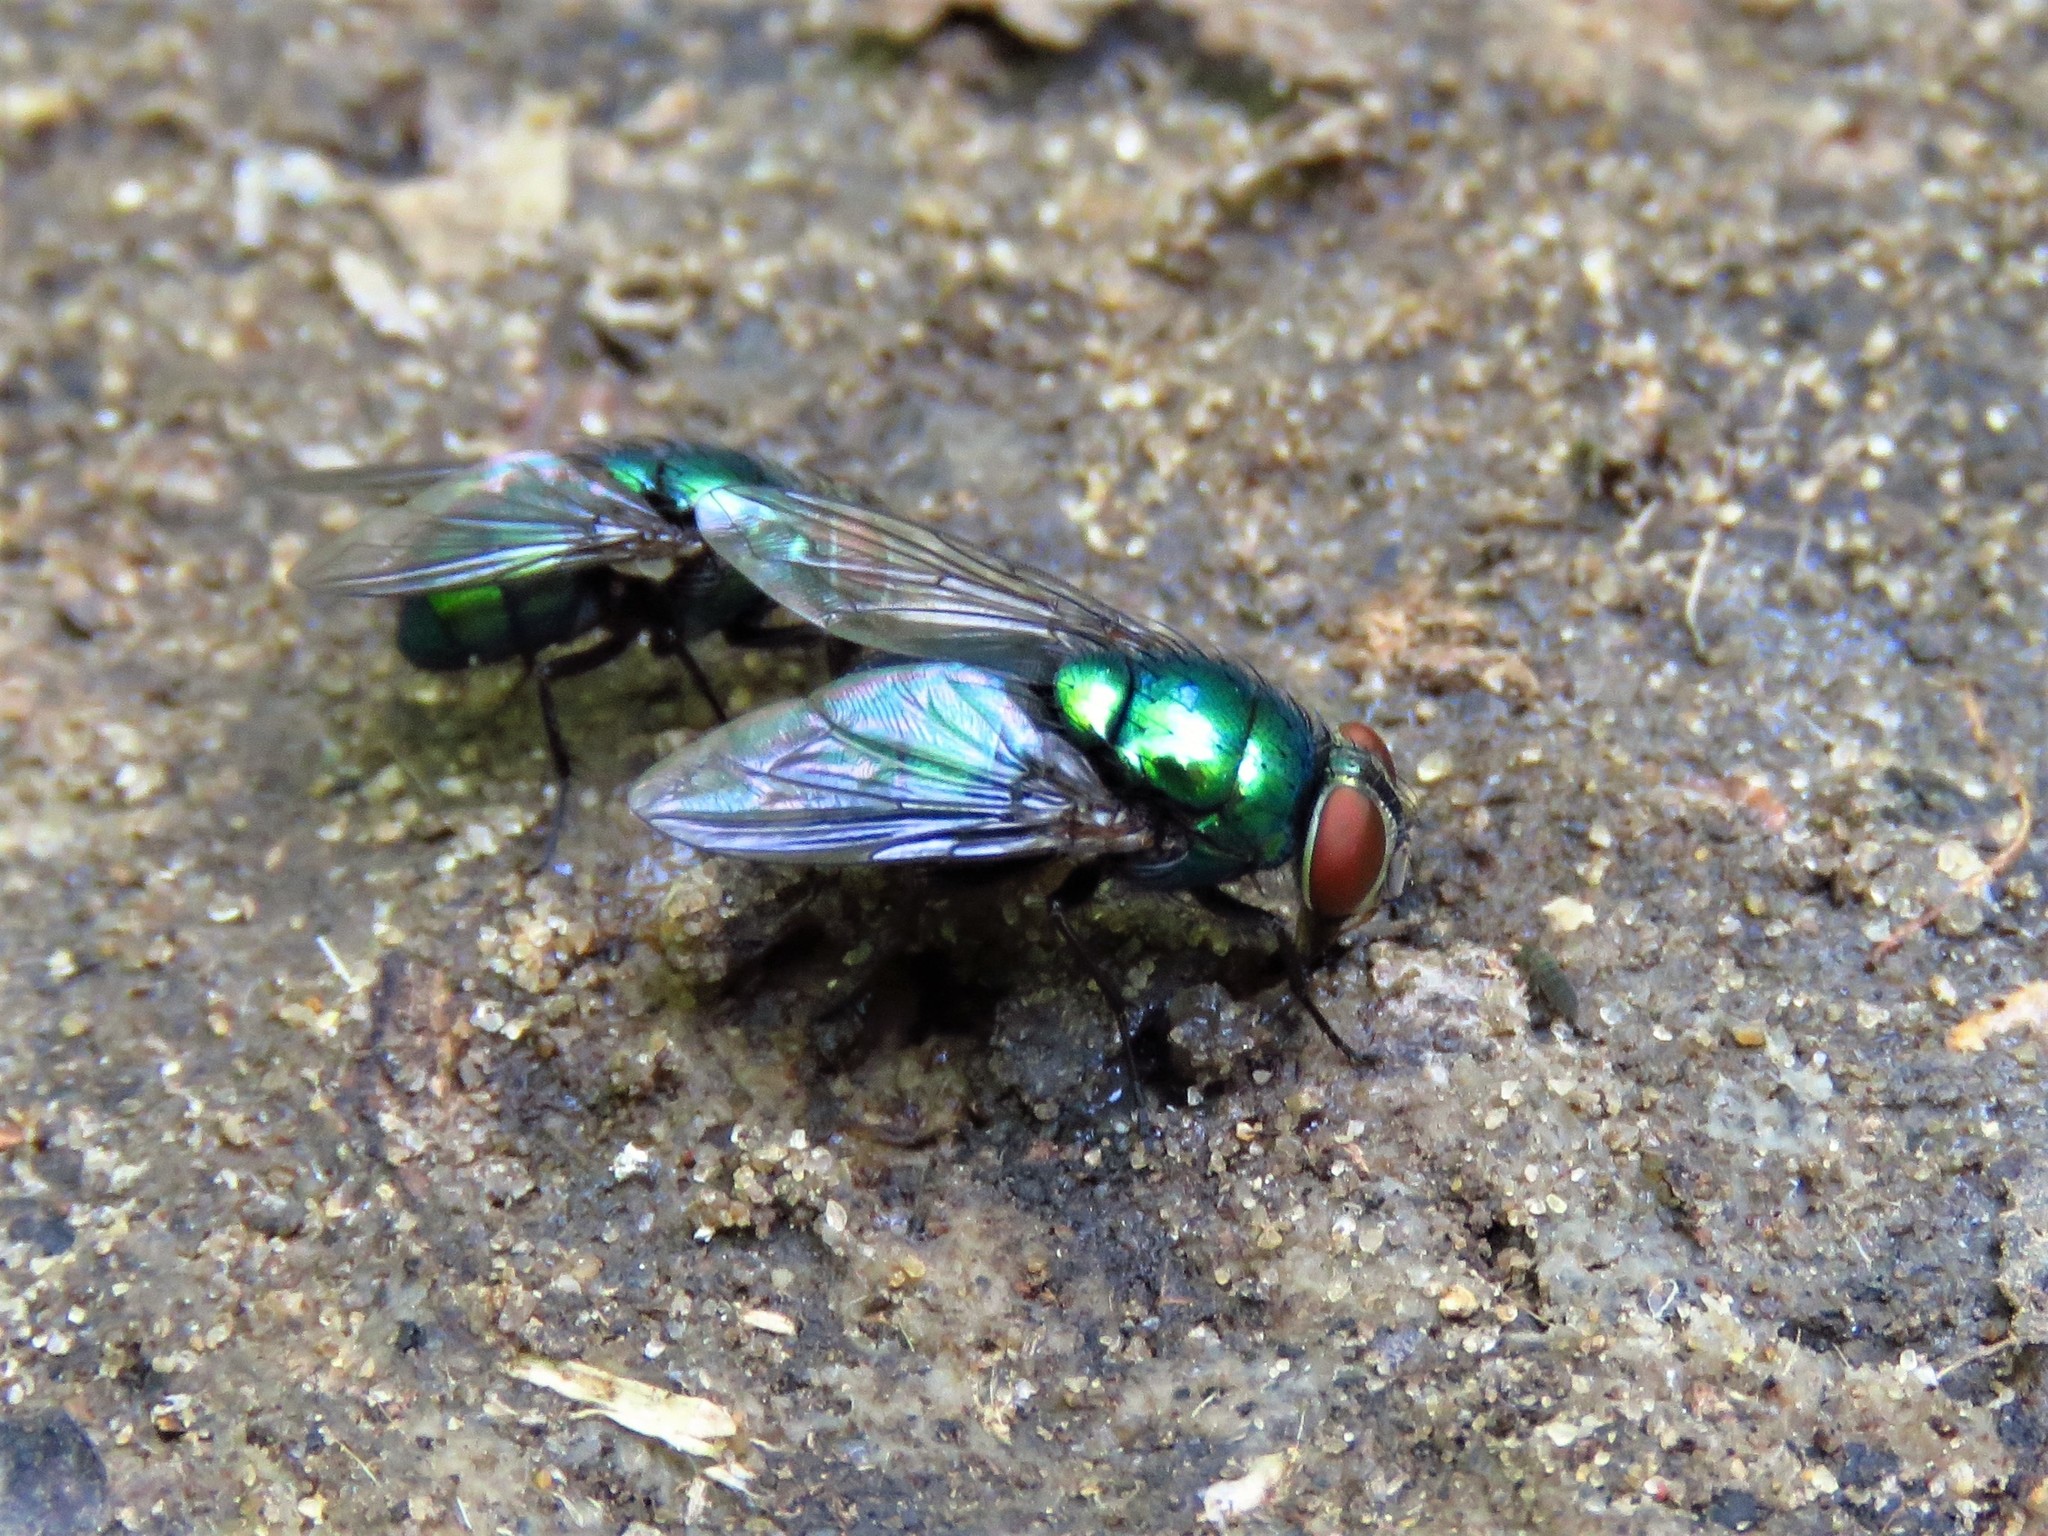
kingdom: Animalia
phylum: Arthropoda
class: Insecta
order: Diptera
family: Calliphoridae
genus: Chrysomya
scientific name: Chrysomya megacephala
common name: Blow fly
